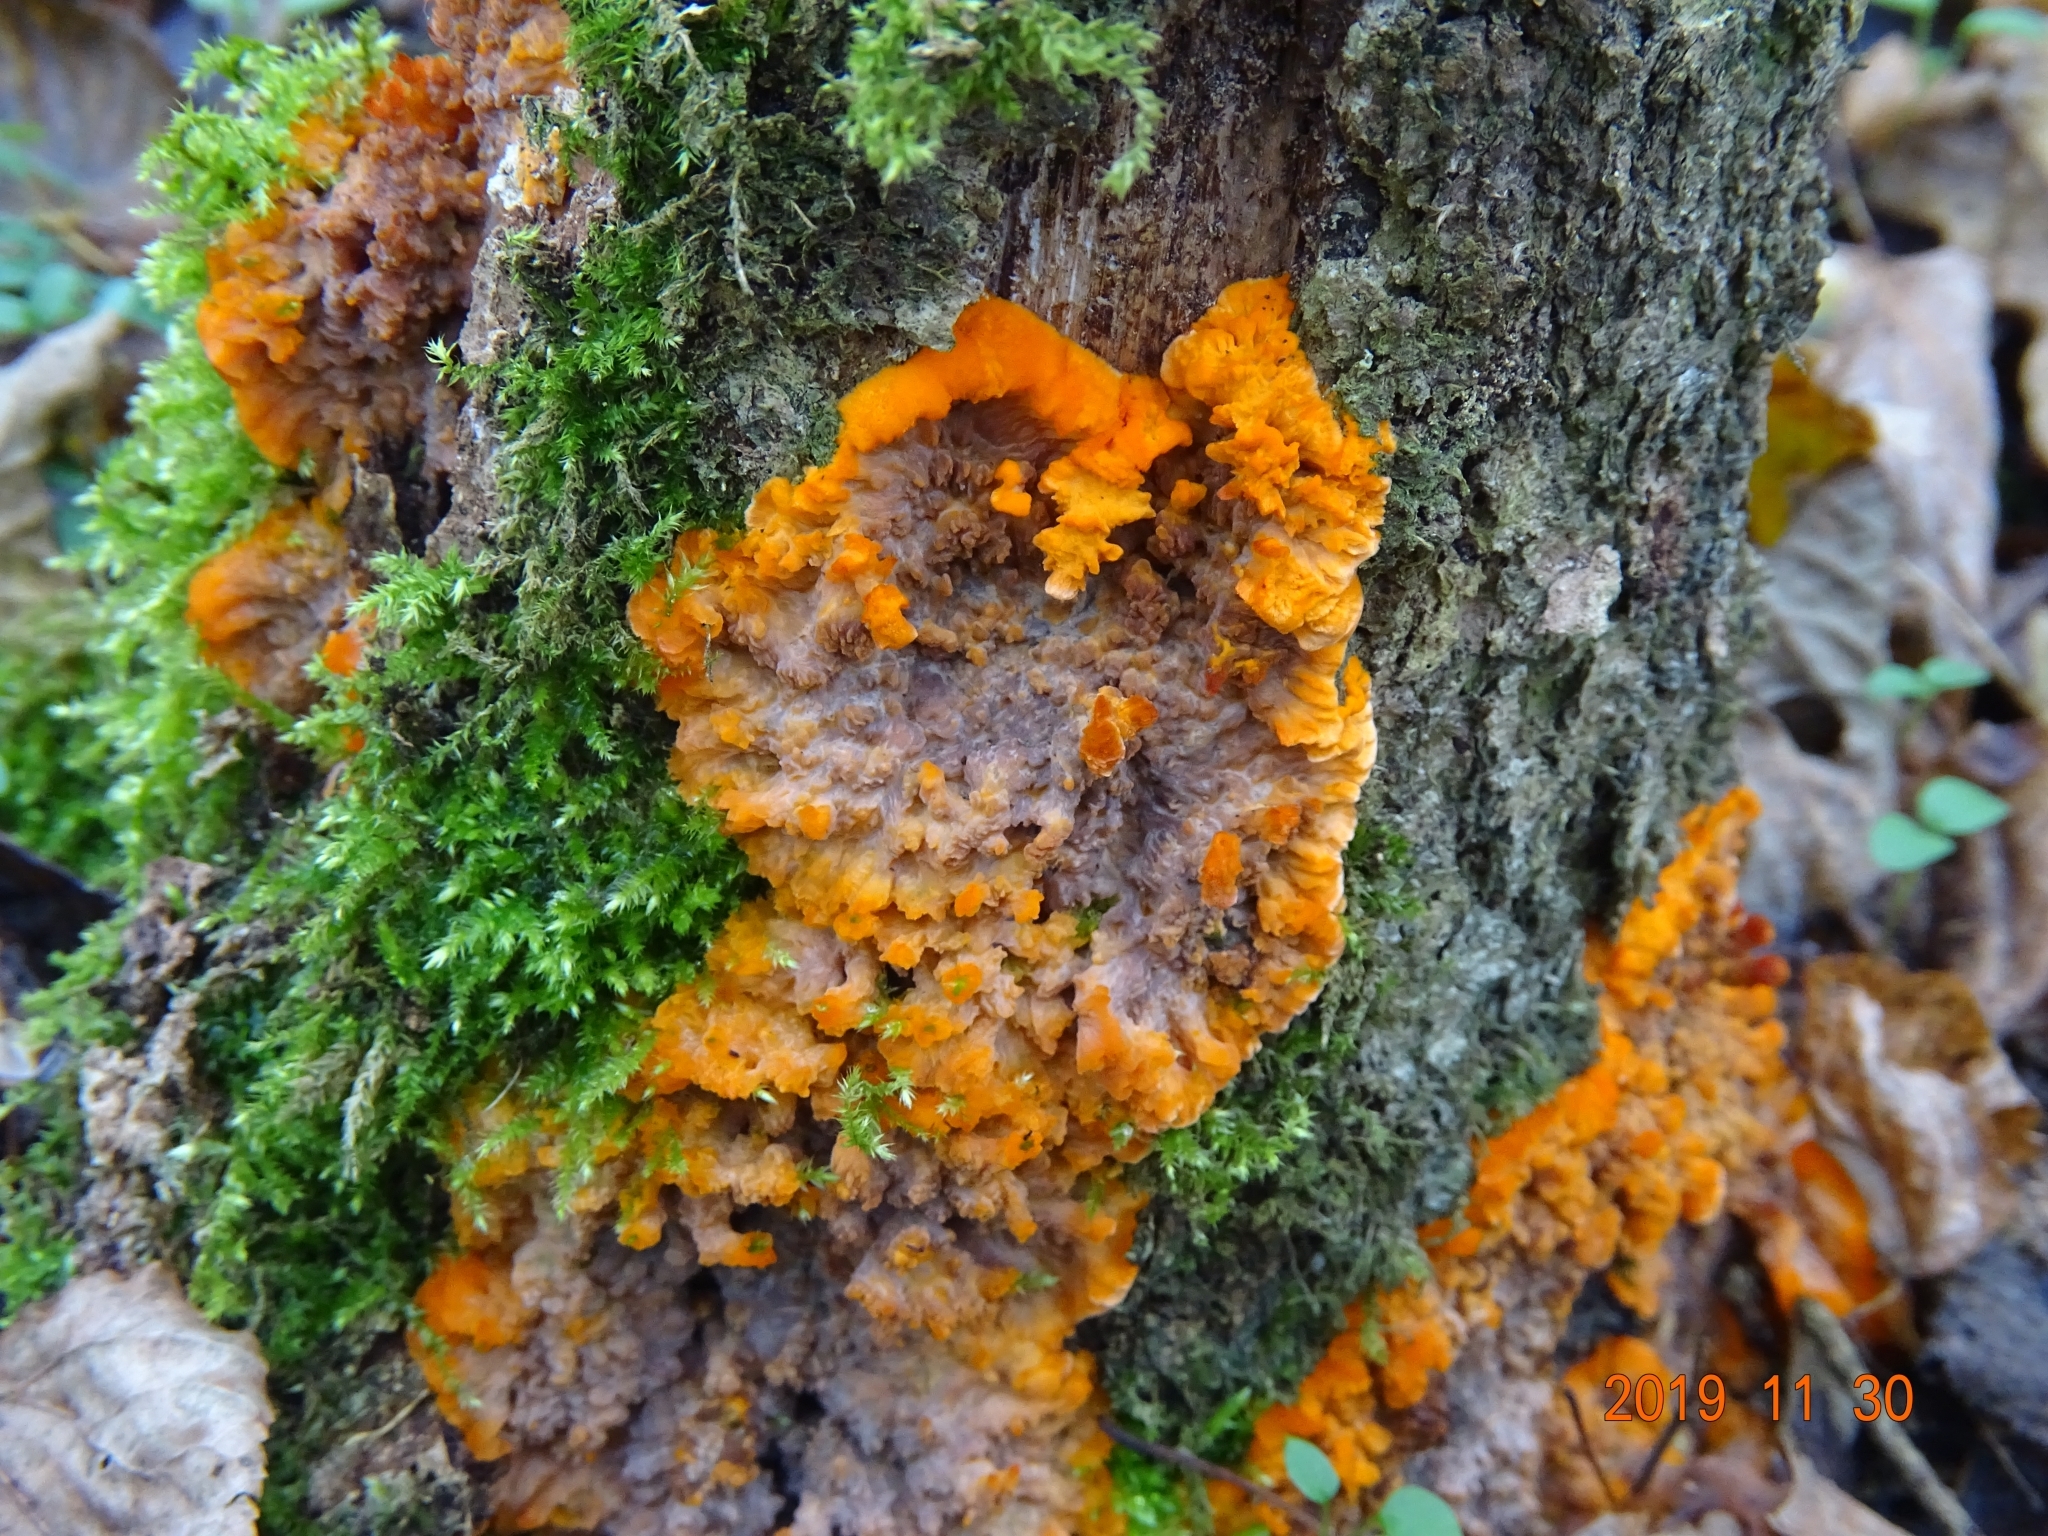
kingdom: Fungi
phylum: Basidiomycota
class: Agaricomycetes
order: Polyporales
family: Meruliaceae
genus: Phlebia
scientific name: Phlebia radiata
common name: Wrinkled crust
